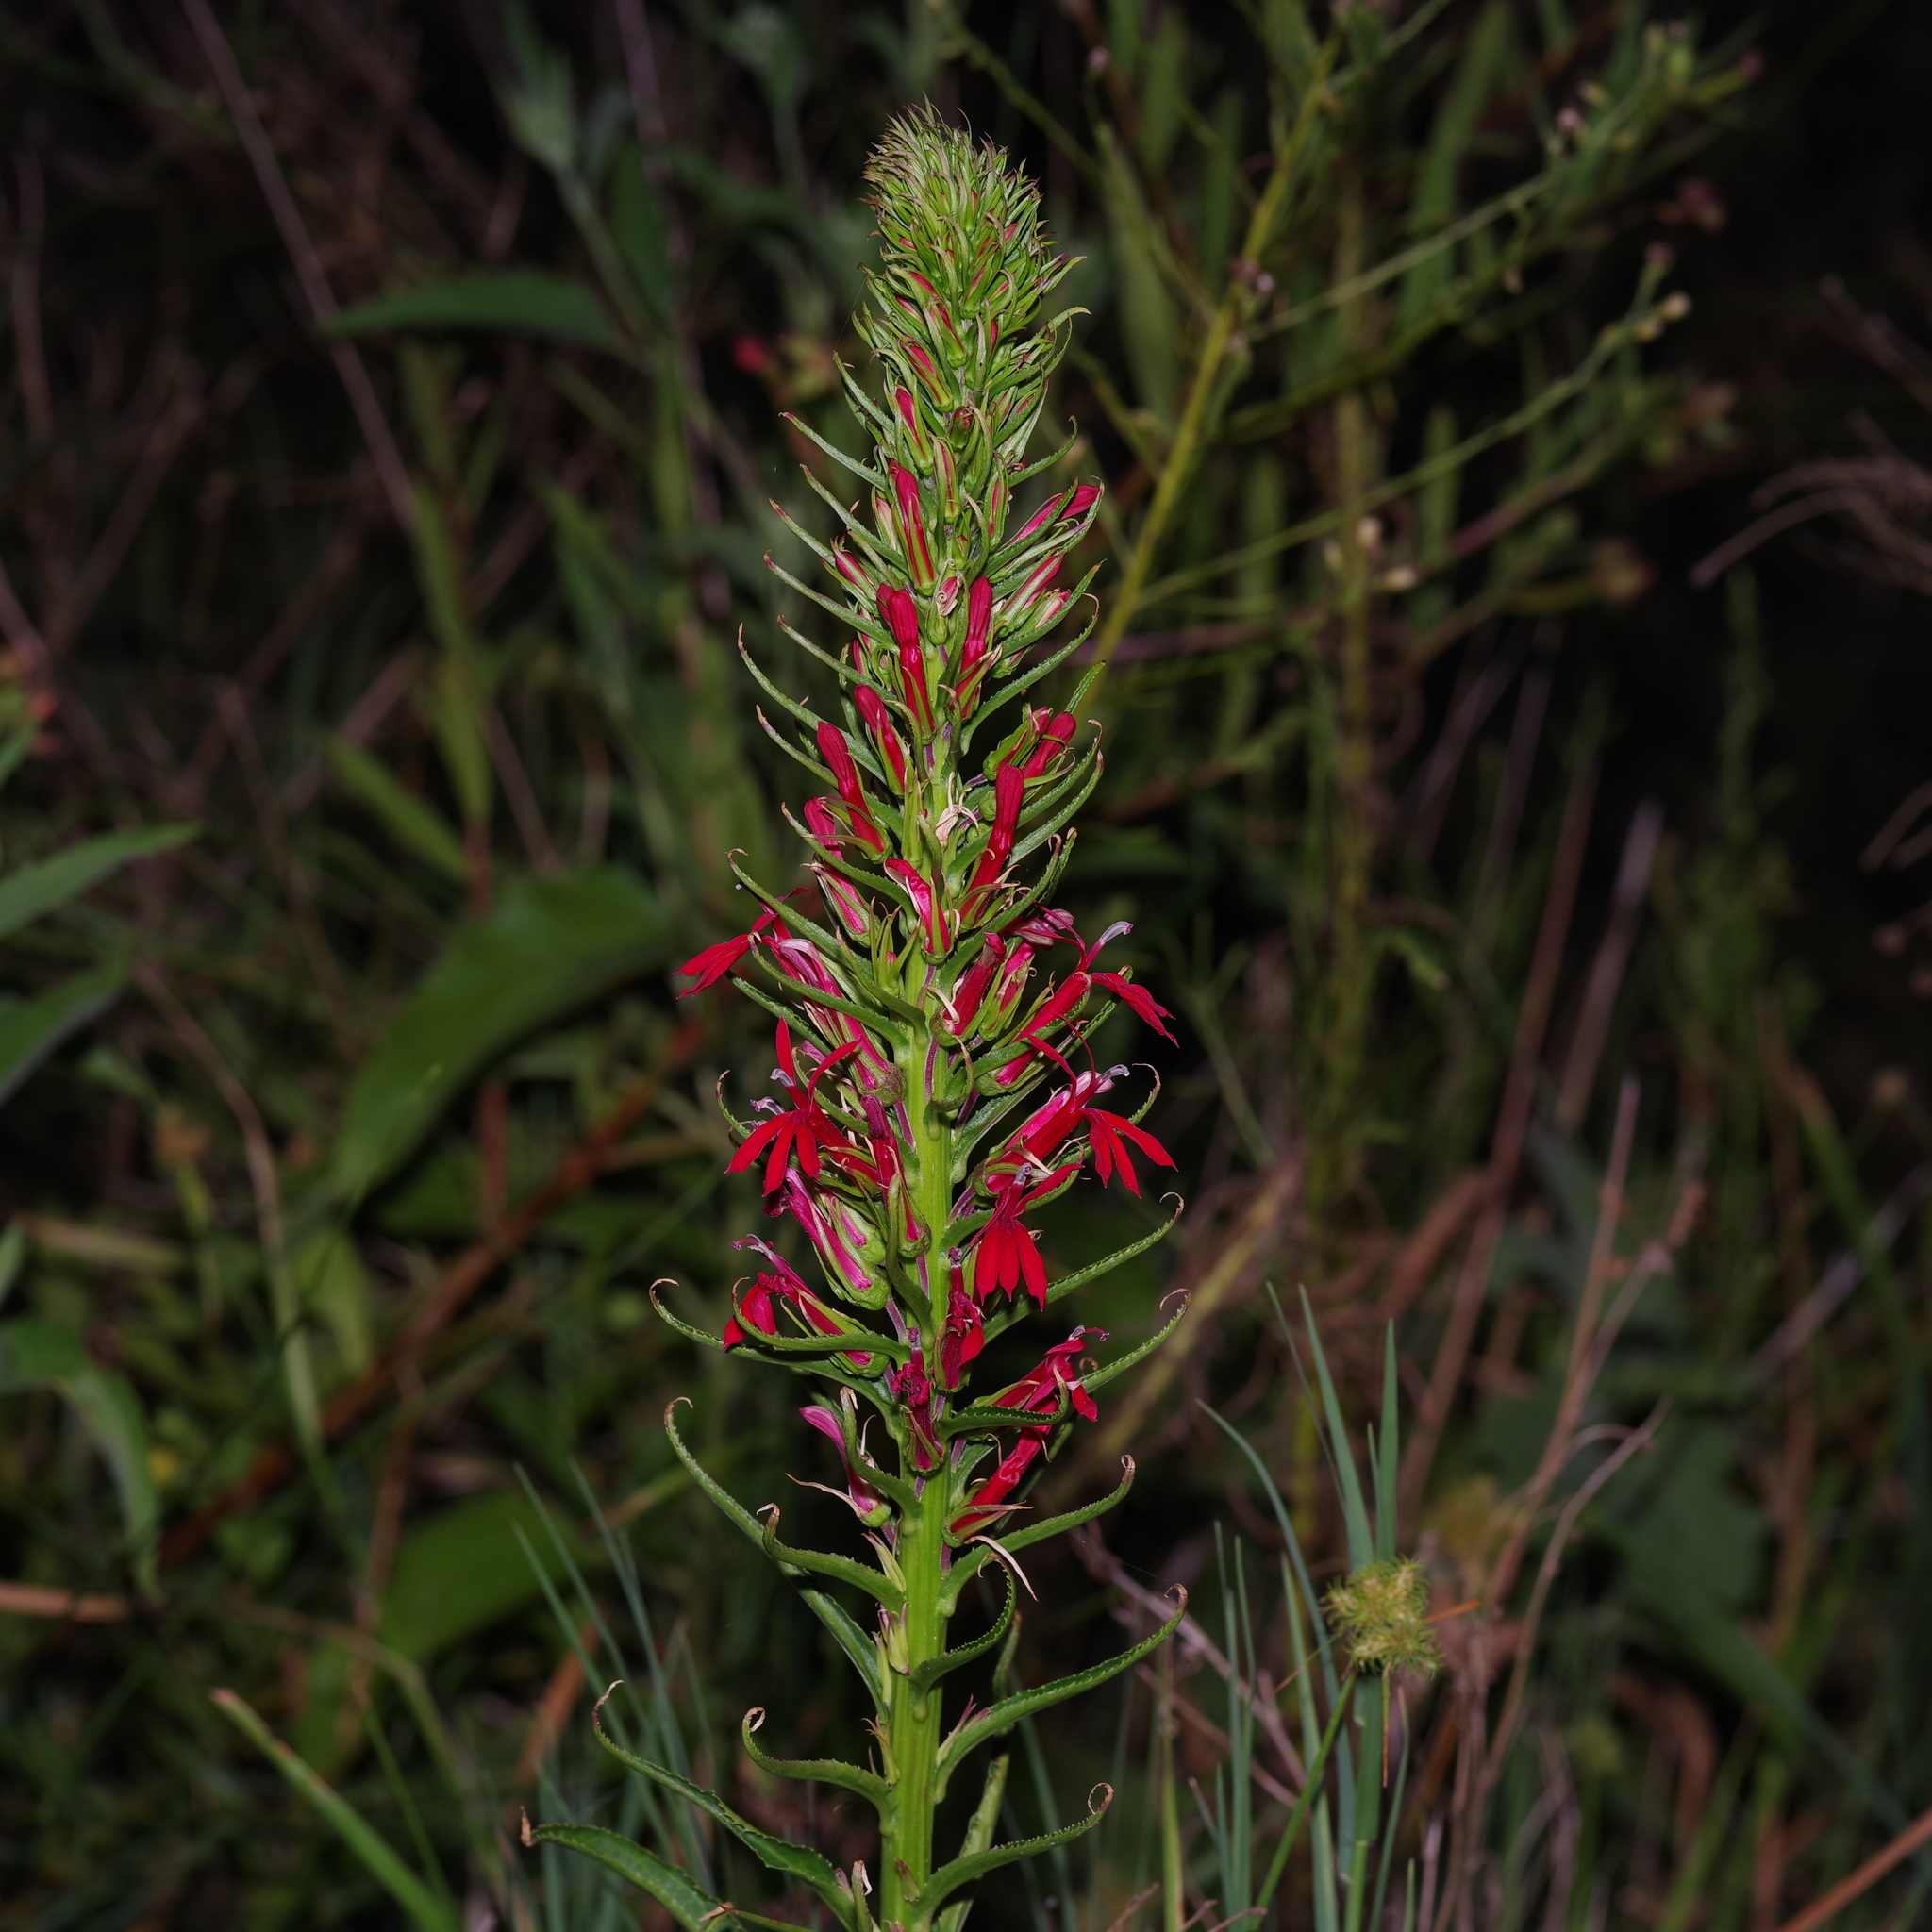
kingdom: Plantae
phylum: Tracheophyta
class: Magnoliopsida
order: Asterales
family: Campanulaceae
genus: Lobelia
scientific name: Lobelia cardinalis
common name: Cardinal flower
